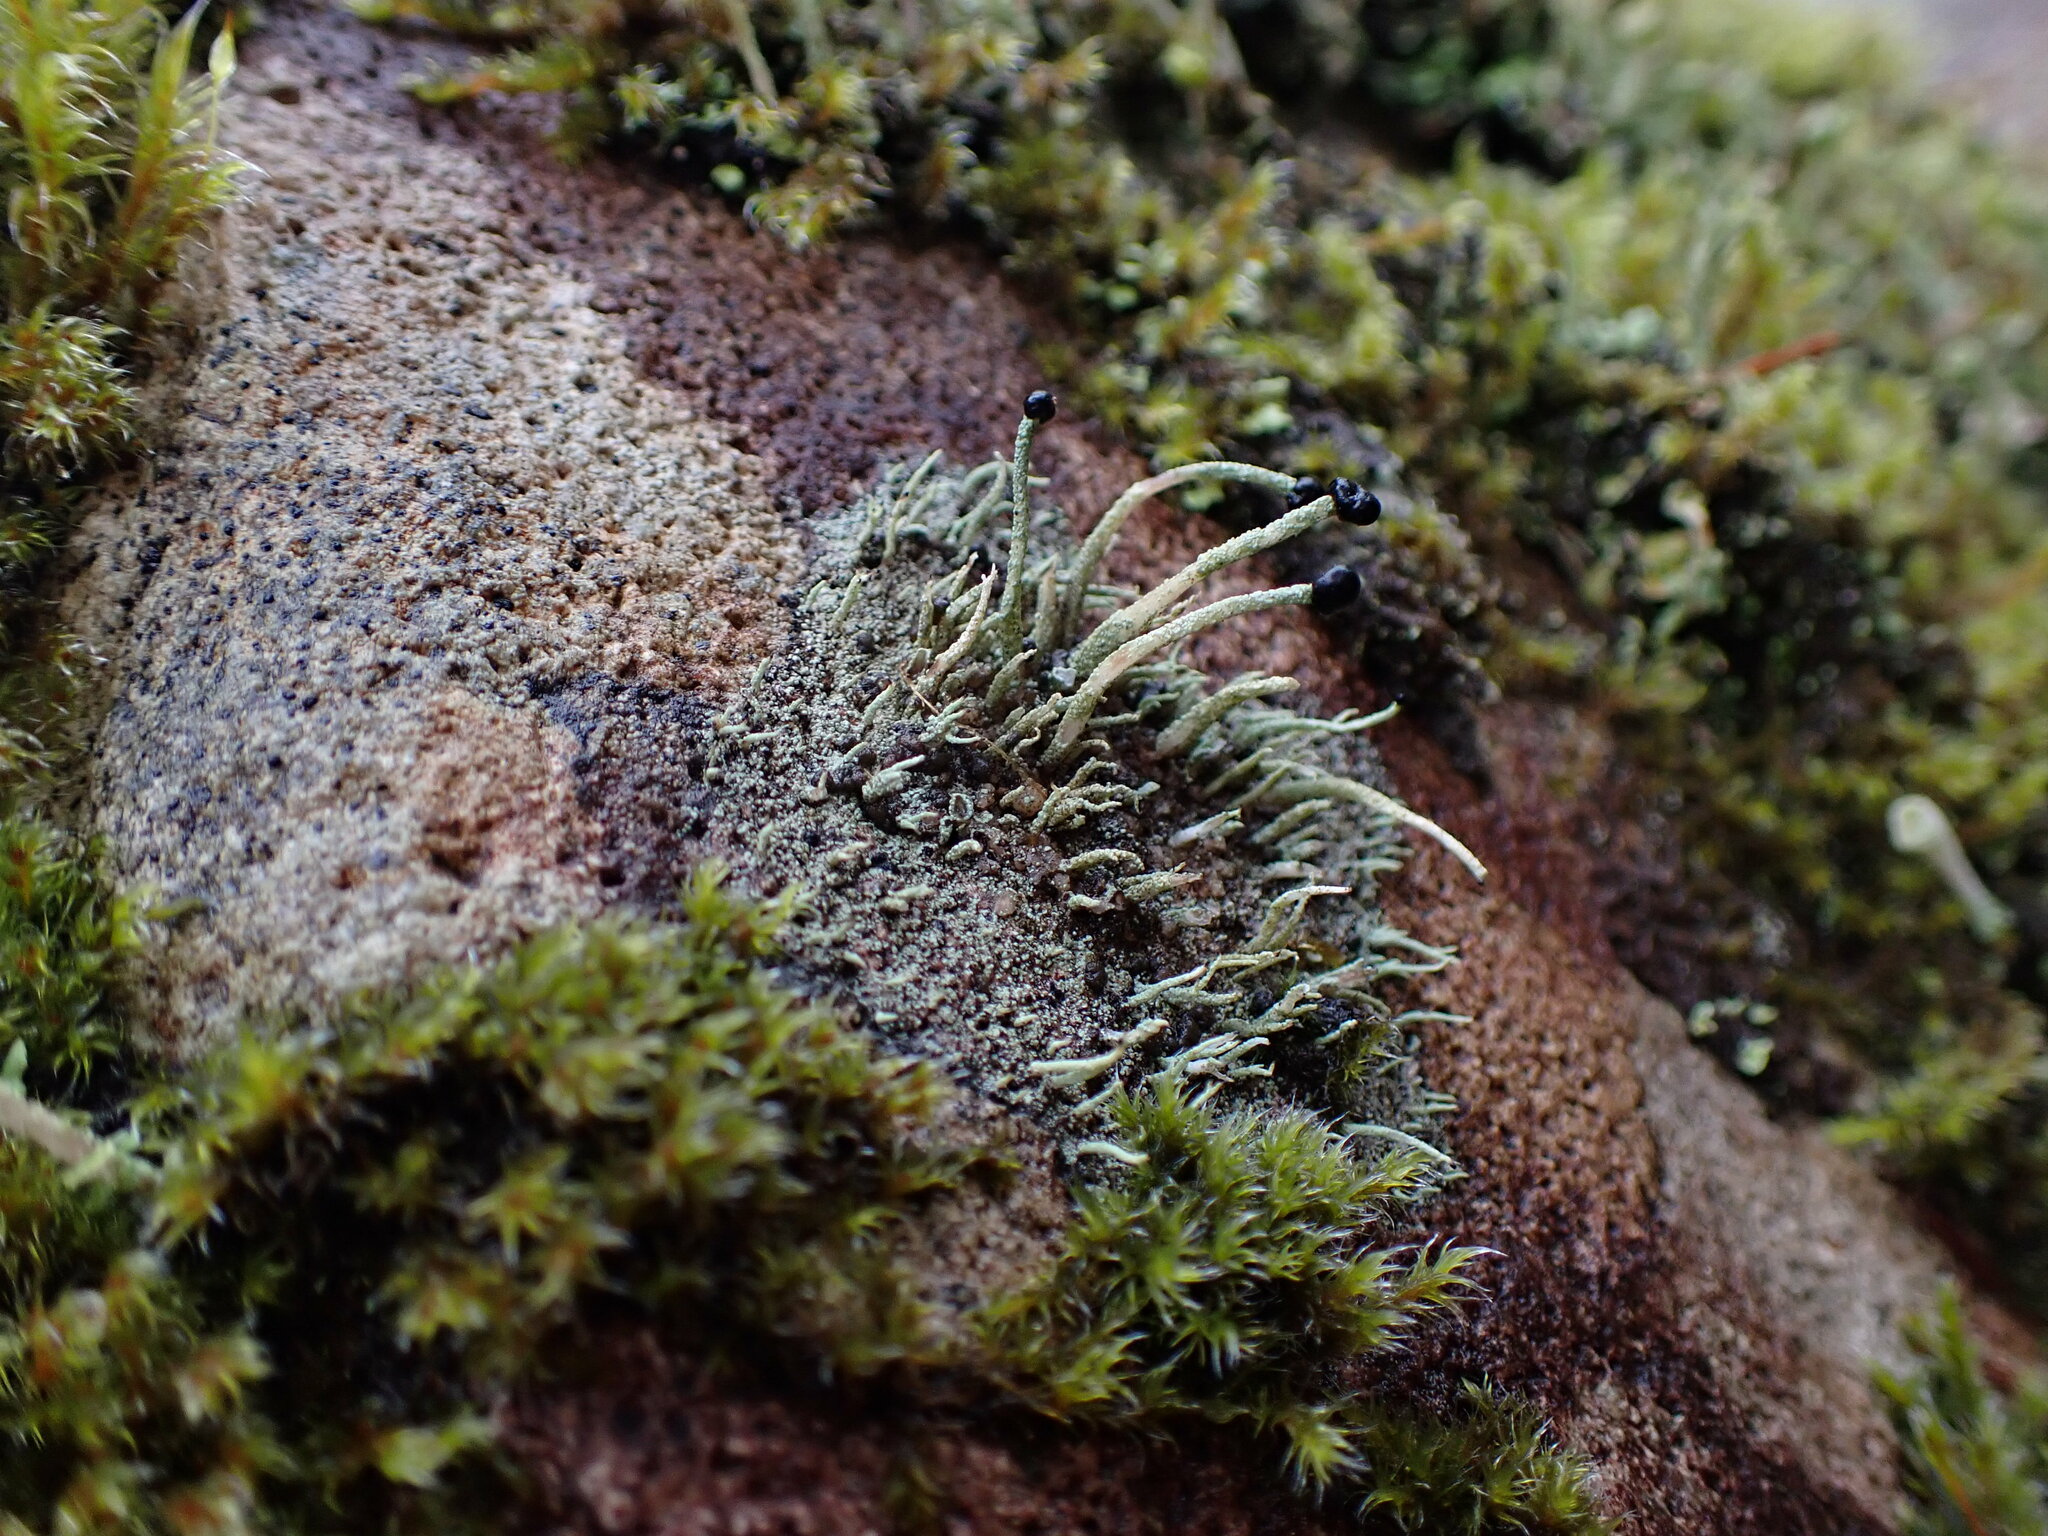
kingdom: Fungi
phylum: Ascomycota
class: Lecanoromycetes
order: Lecanorales
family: Cladoniaceae
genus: Pilophorus
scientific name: Pilophorus acicularis
